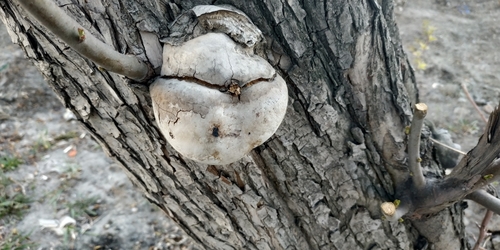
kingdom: Fungi
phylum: Basidiomycota
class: Agaricomycetes
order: Hymenochaetales
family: Hymenochaetaceae
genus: Phellinus
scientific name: Phellinus igniarius
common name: Willow bracket
